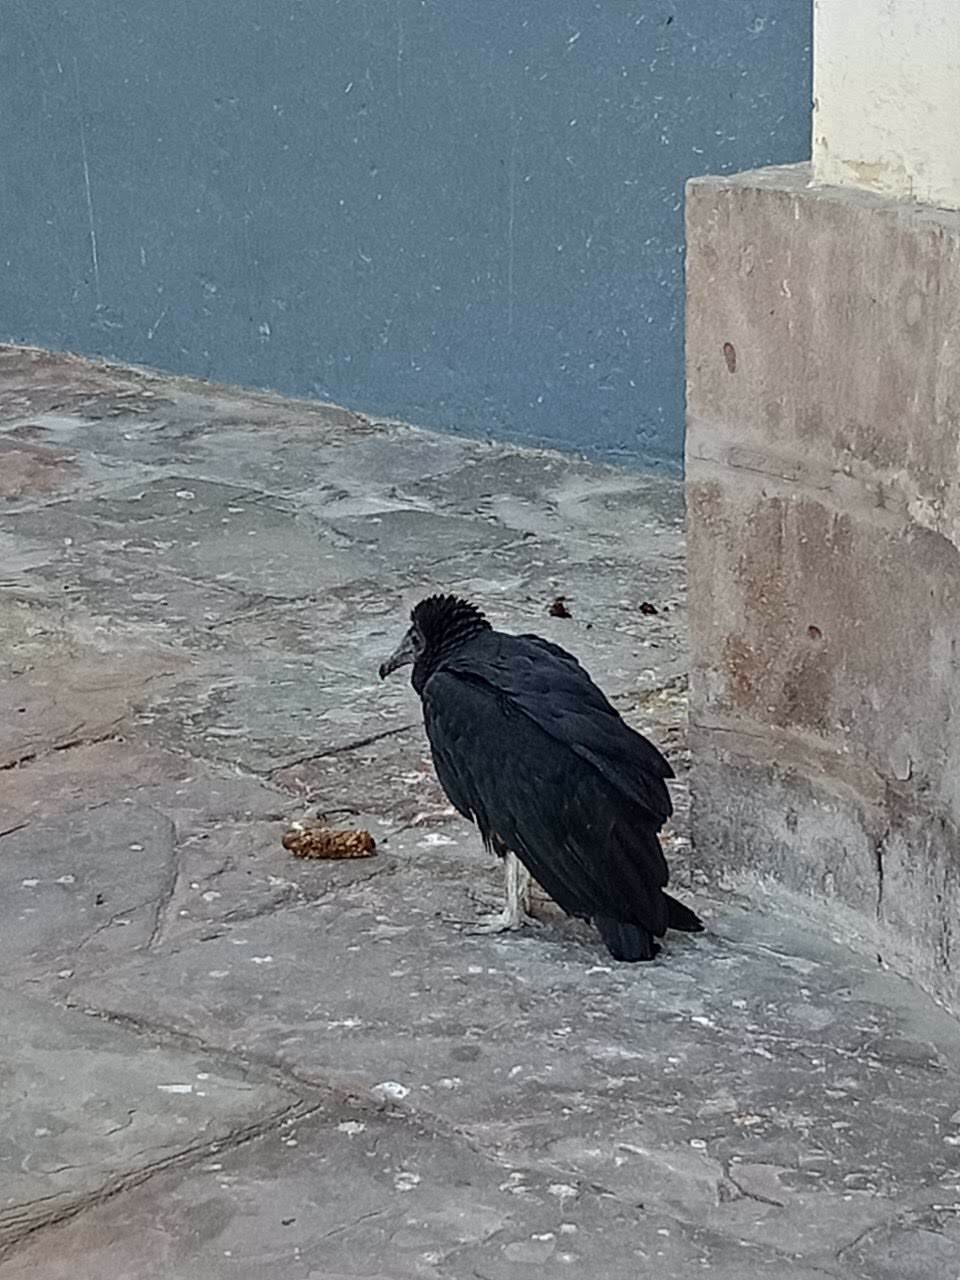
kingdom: Animalia
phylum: Chordata
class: Aves
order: Accipitriformes
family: Cathartidae
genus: Coragyps
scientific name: Coragyps atratus
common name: Black vulture
